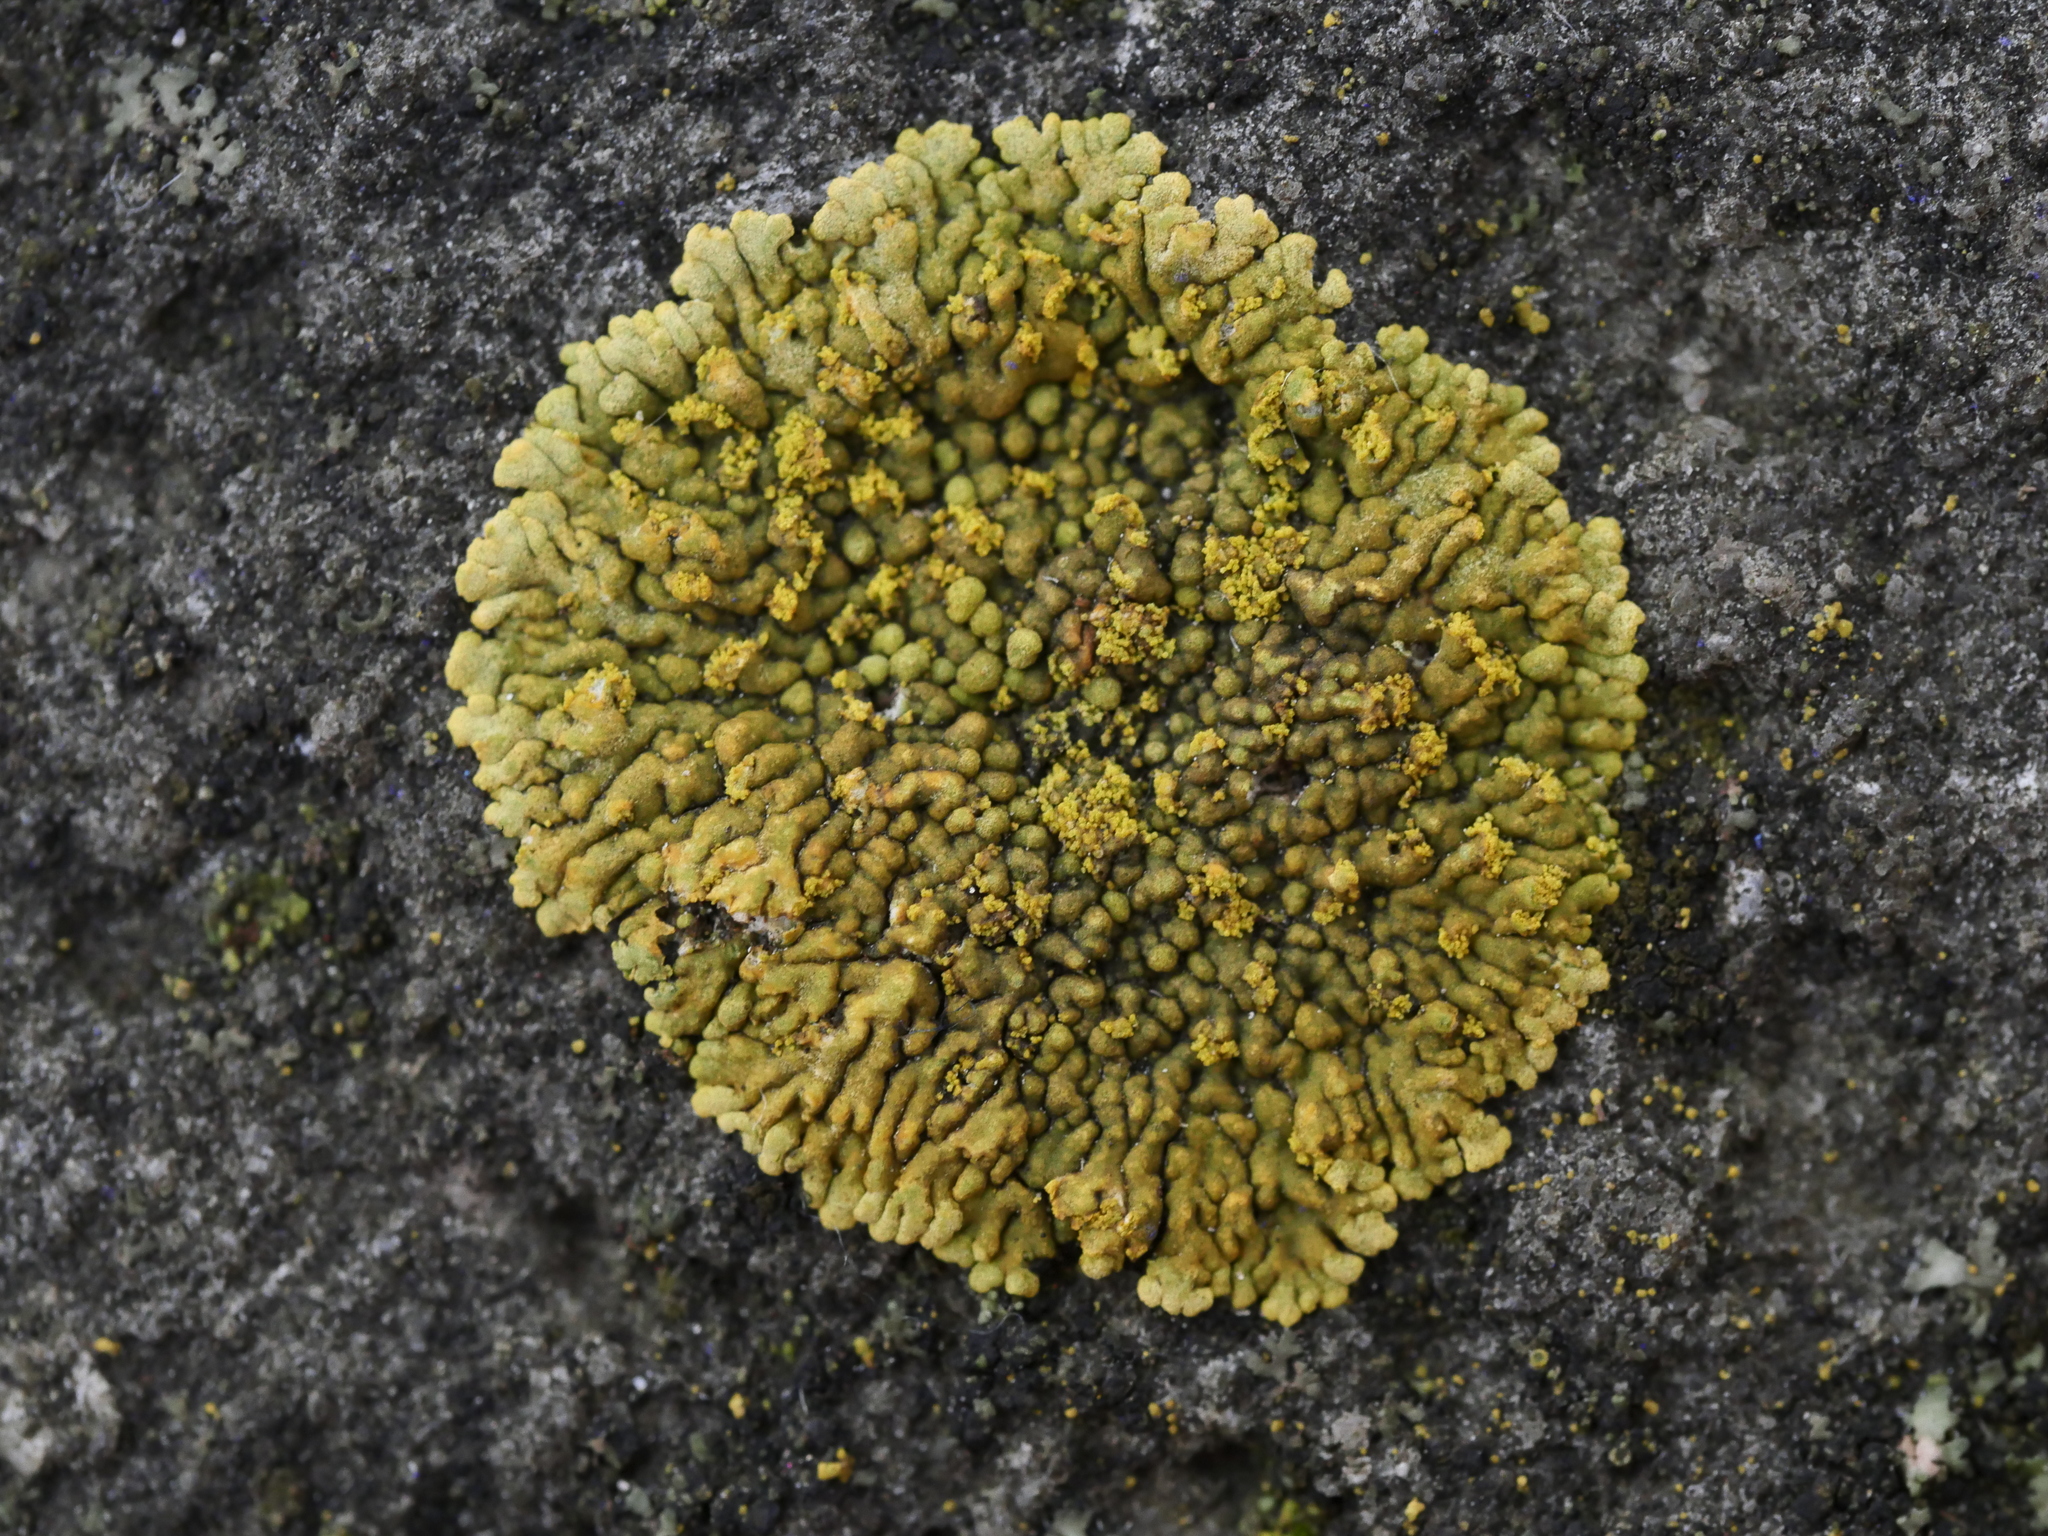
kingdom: Fungi
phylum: Ascomycota
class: Lecanoromycetes
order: Teloschistales
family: Teloschistaceae
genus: Calogaya
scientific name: Calogaya decipiens
